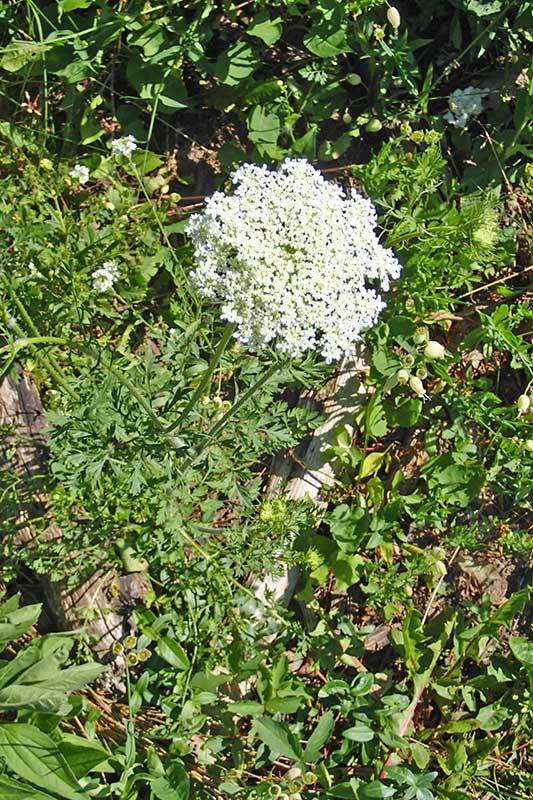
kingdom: Plantae
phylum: Tracheophyta
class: Magnoliopsida
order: Apiales
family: Apiaceae
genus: Daucus
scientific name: Daucus carota
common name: Wild carrot
